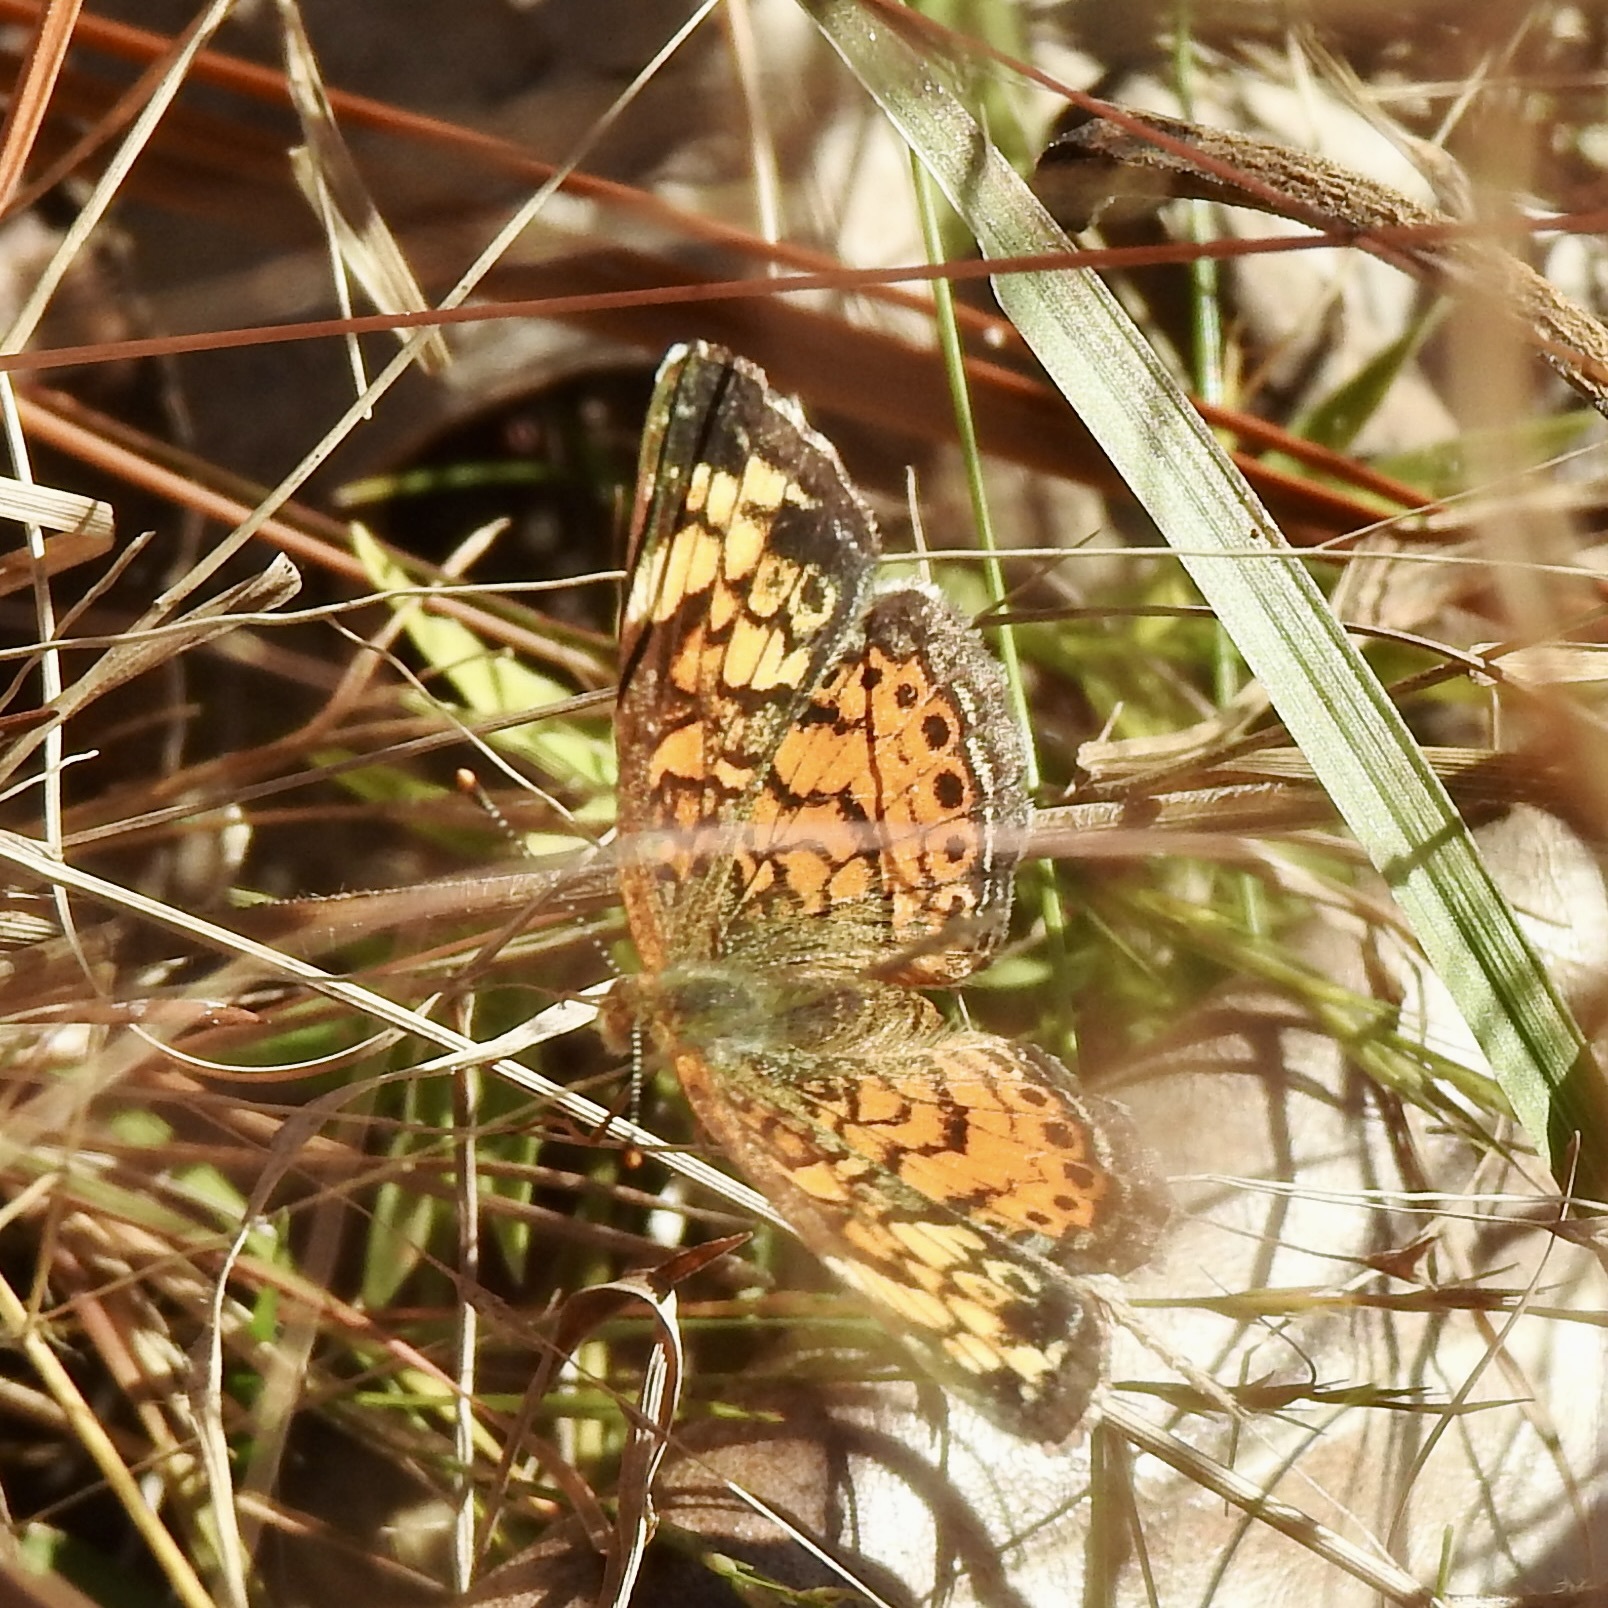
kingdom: Animalia
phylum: Arthropoda
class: Insecta
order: Lepidoptera
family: Nymphalidae
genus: Phyciodes
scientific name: Phyciodes tharos
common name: Pearl crescent
